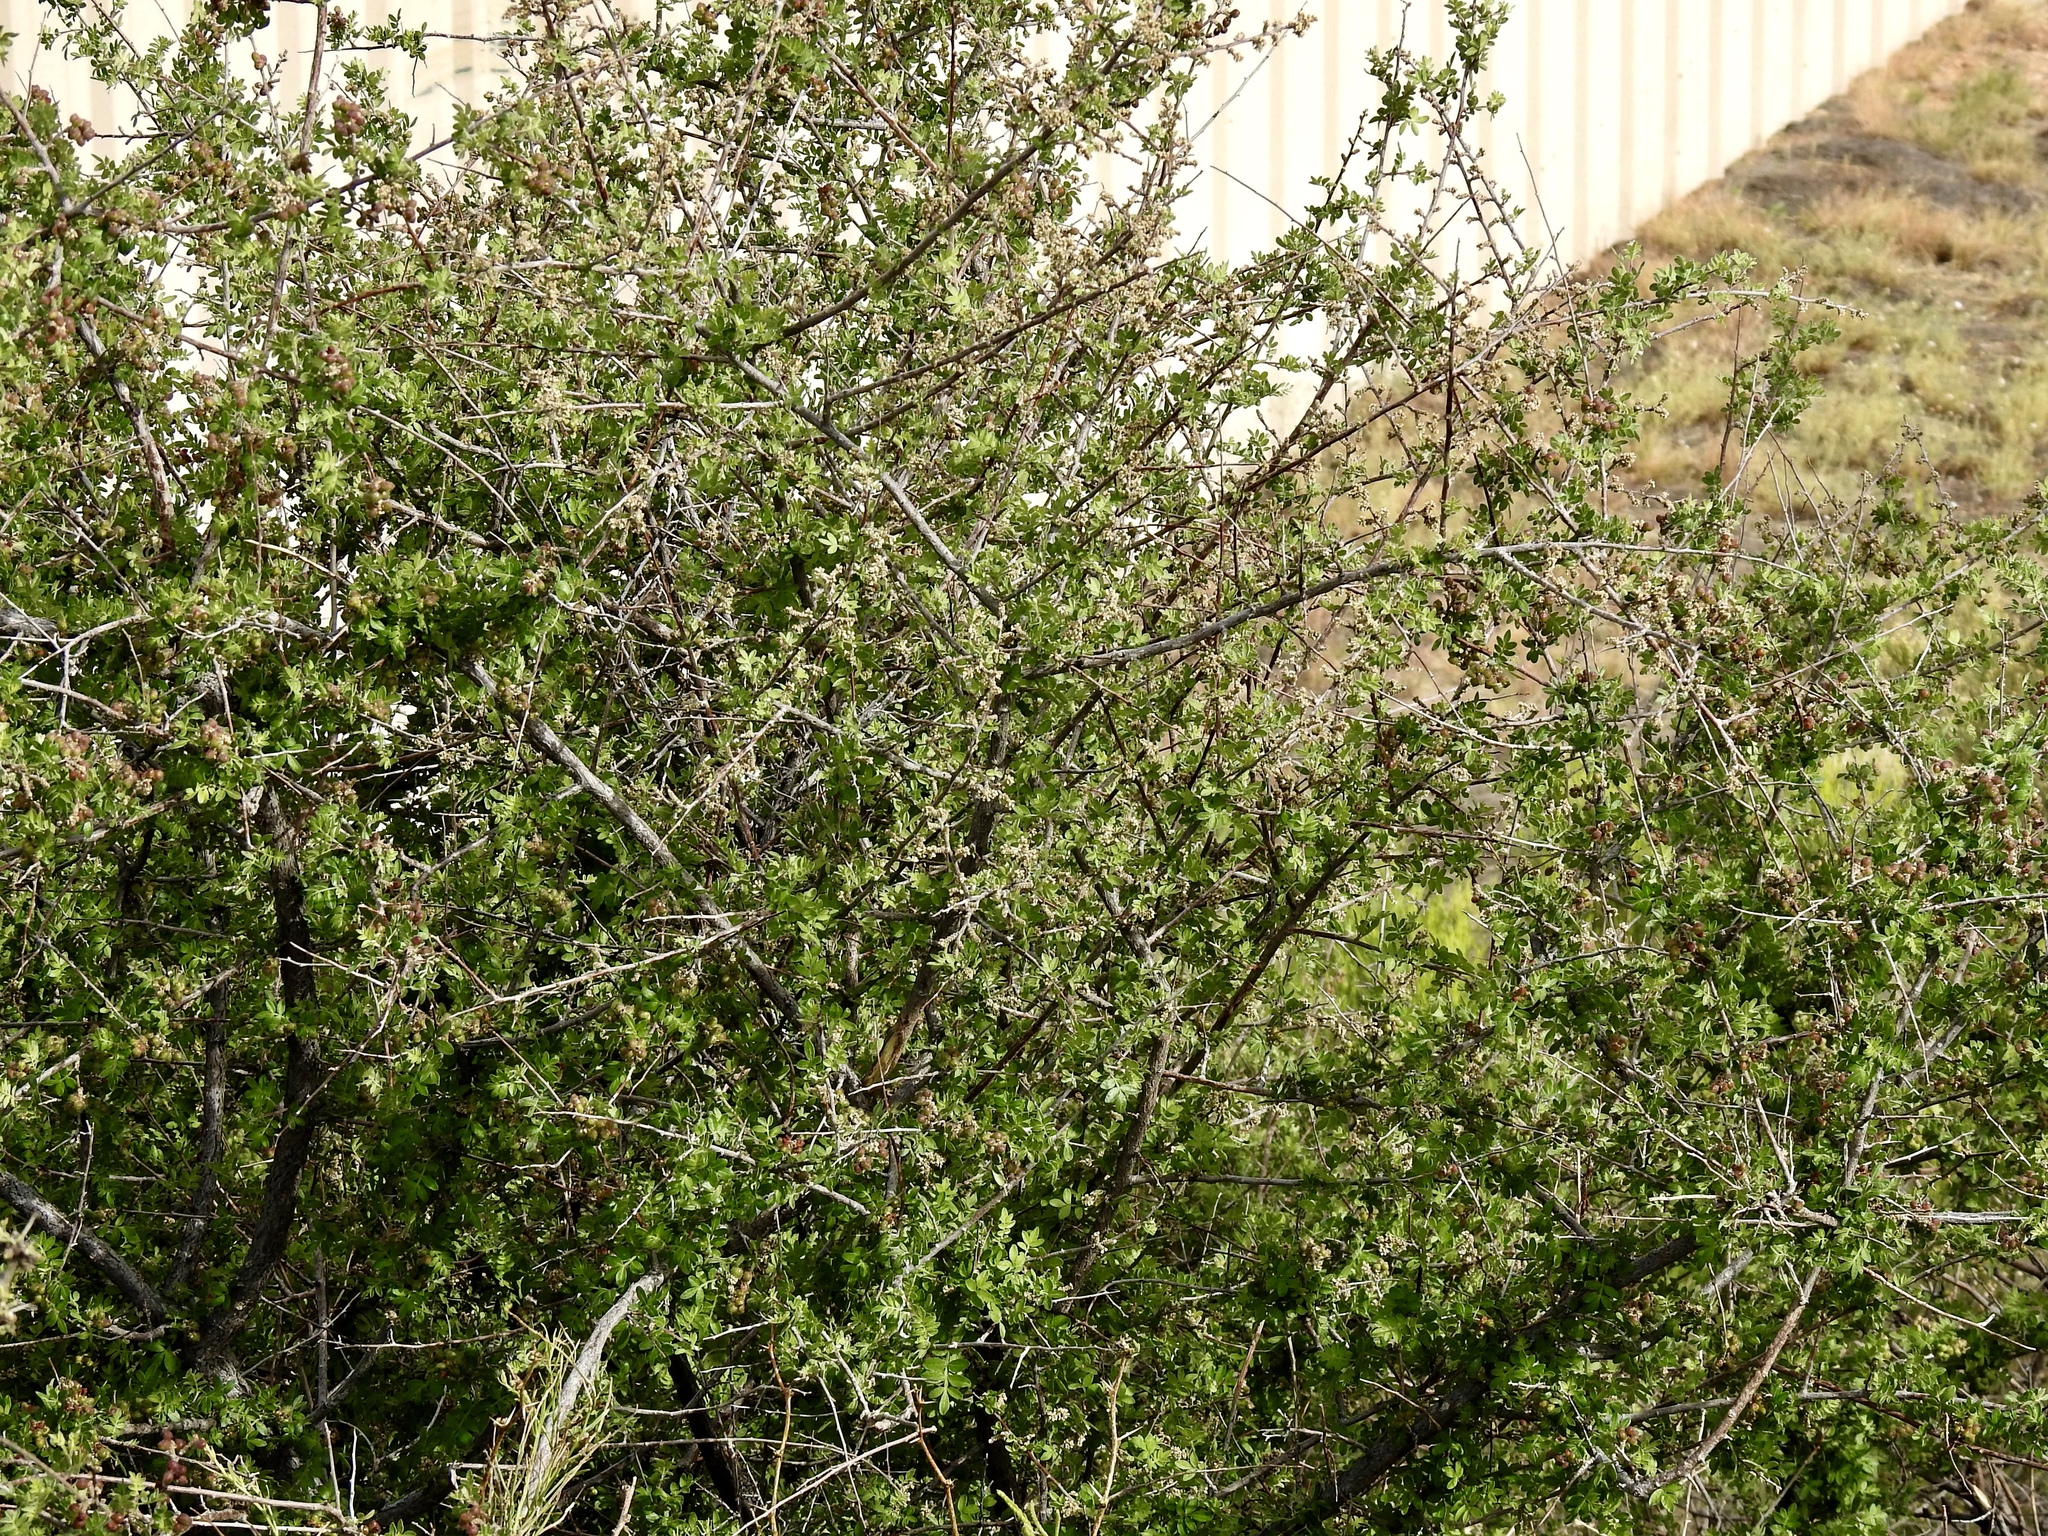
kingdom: Plantae
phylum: Tracheophyta
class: Magnoliopsida
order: Sapindales
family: Anacardiaceae
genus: Rhus
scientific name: Rhus microphylla
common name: Desert sumac
